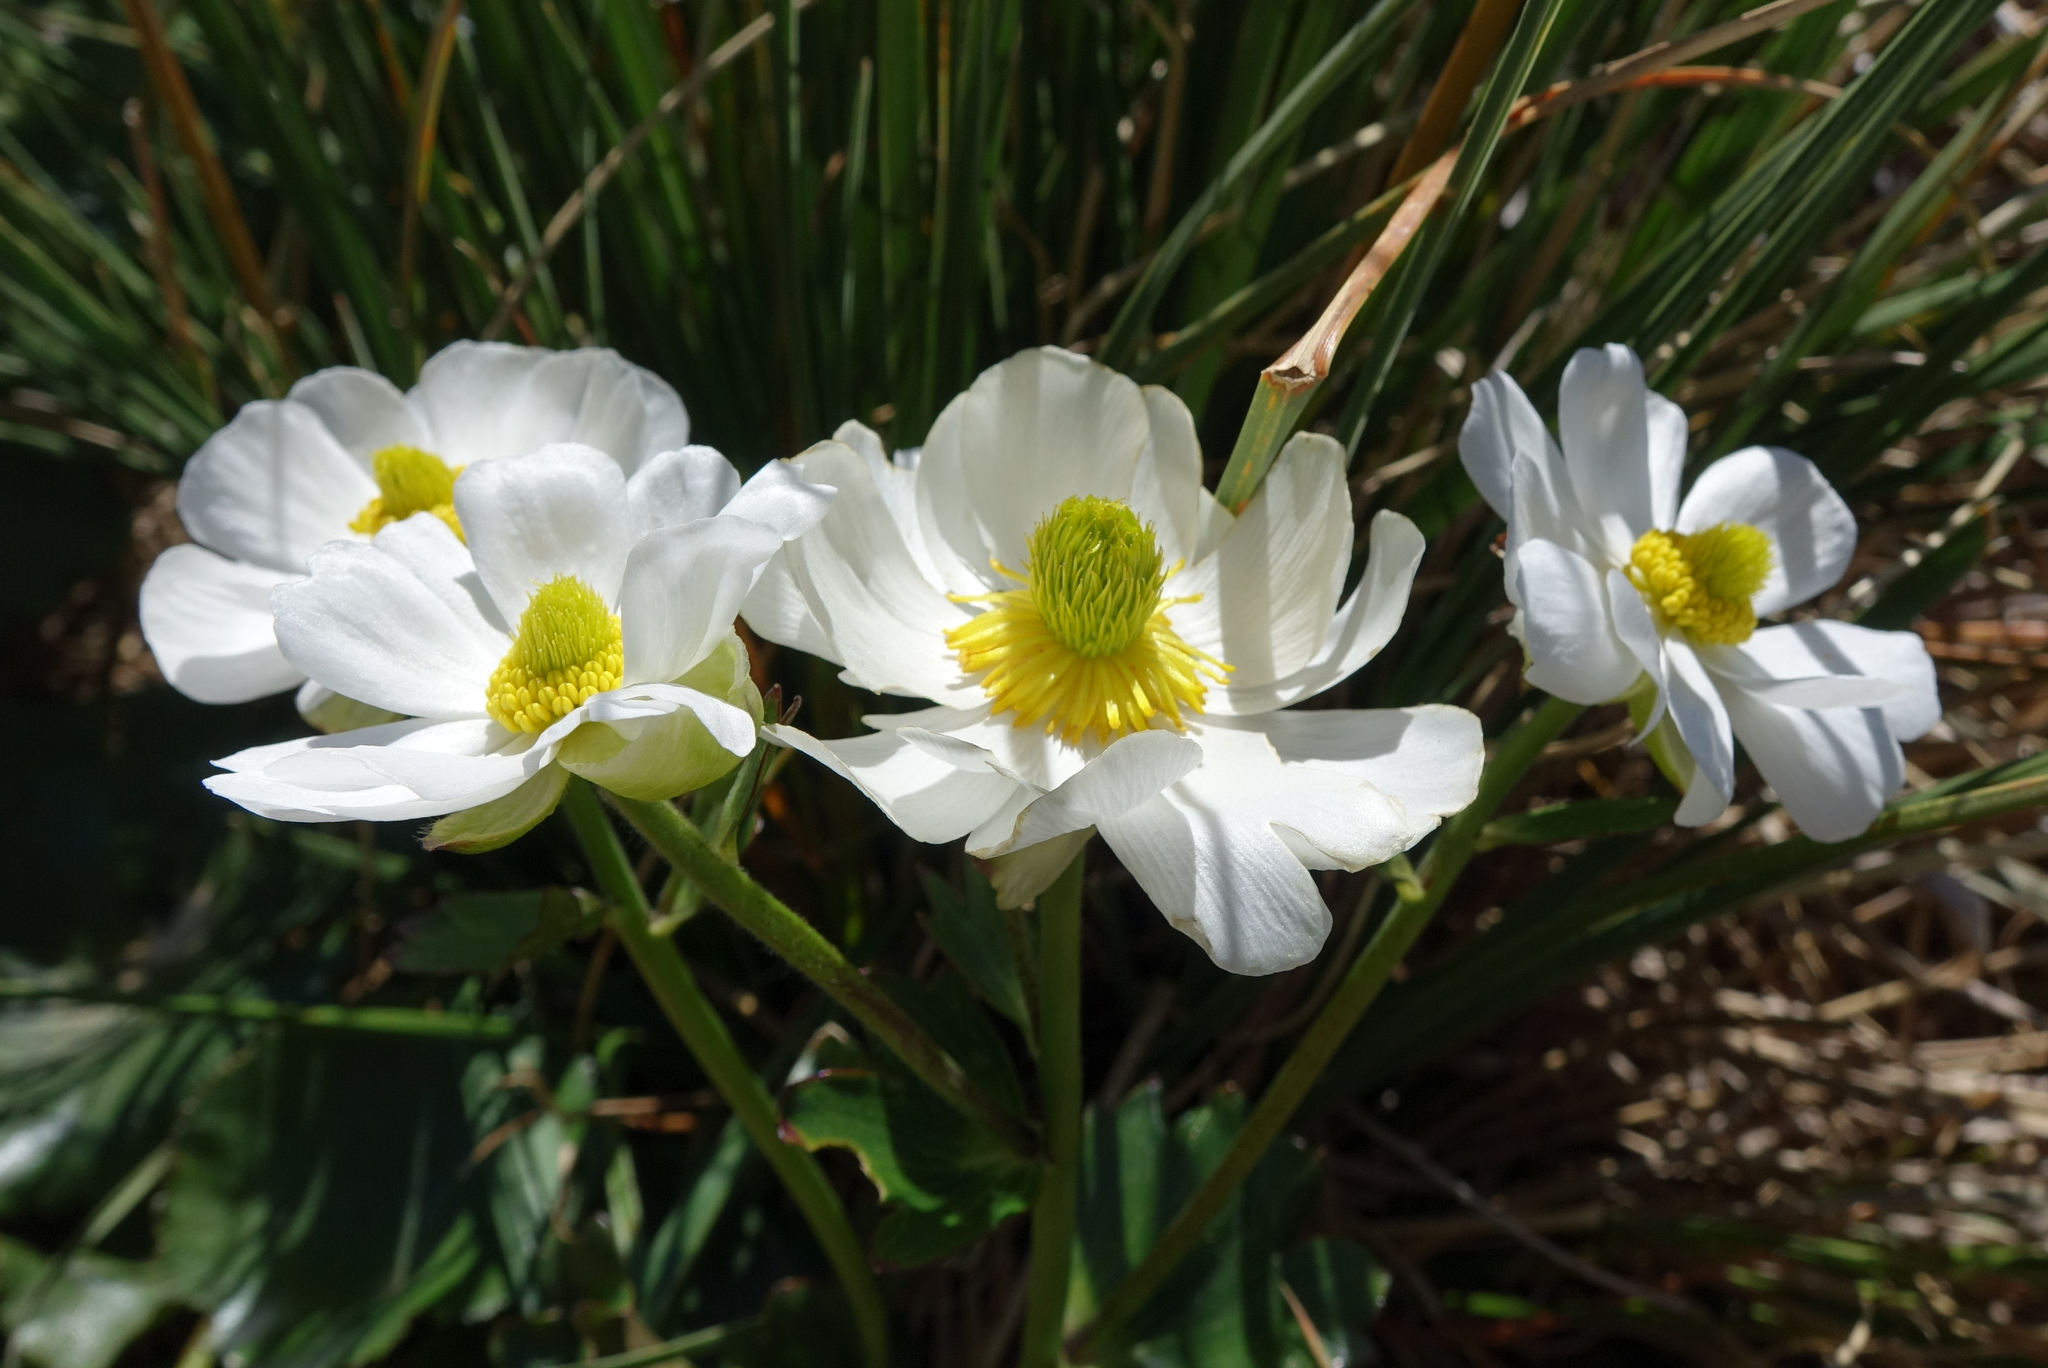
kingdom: Plantae
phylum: Tracheophyta
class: Magnoliopsida
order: Ranunculales
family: Ranunculaceae
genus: Ranunculus
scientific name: Ranunculus lyallii
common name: Mountain-lily
